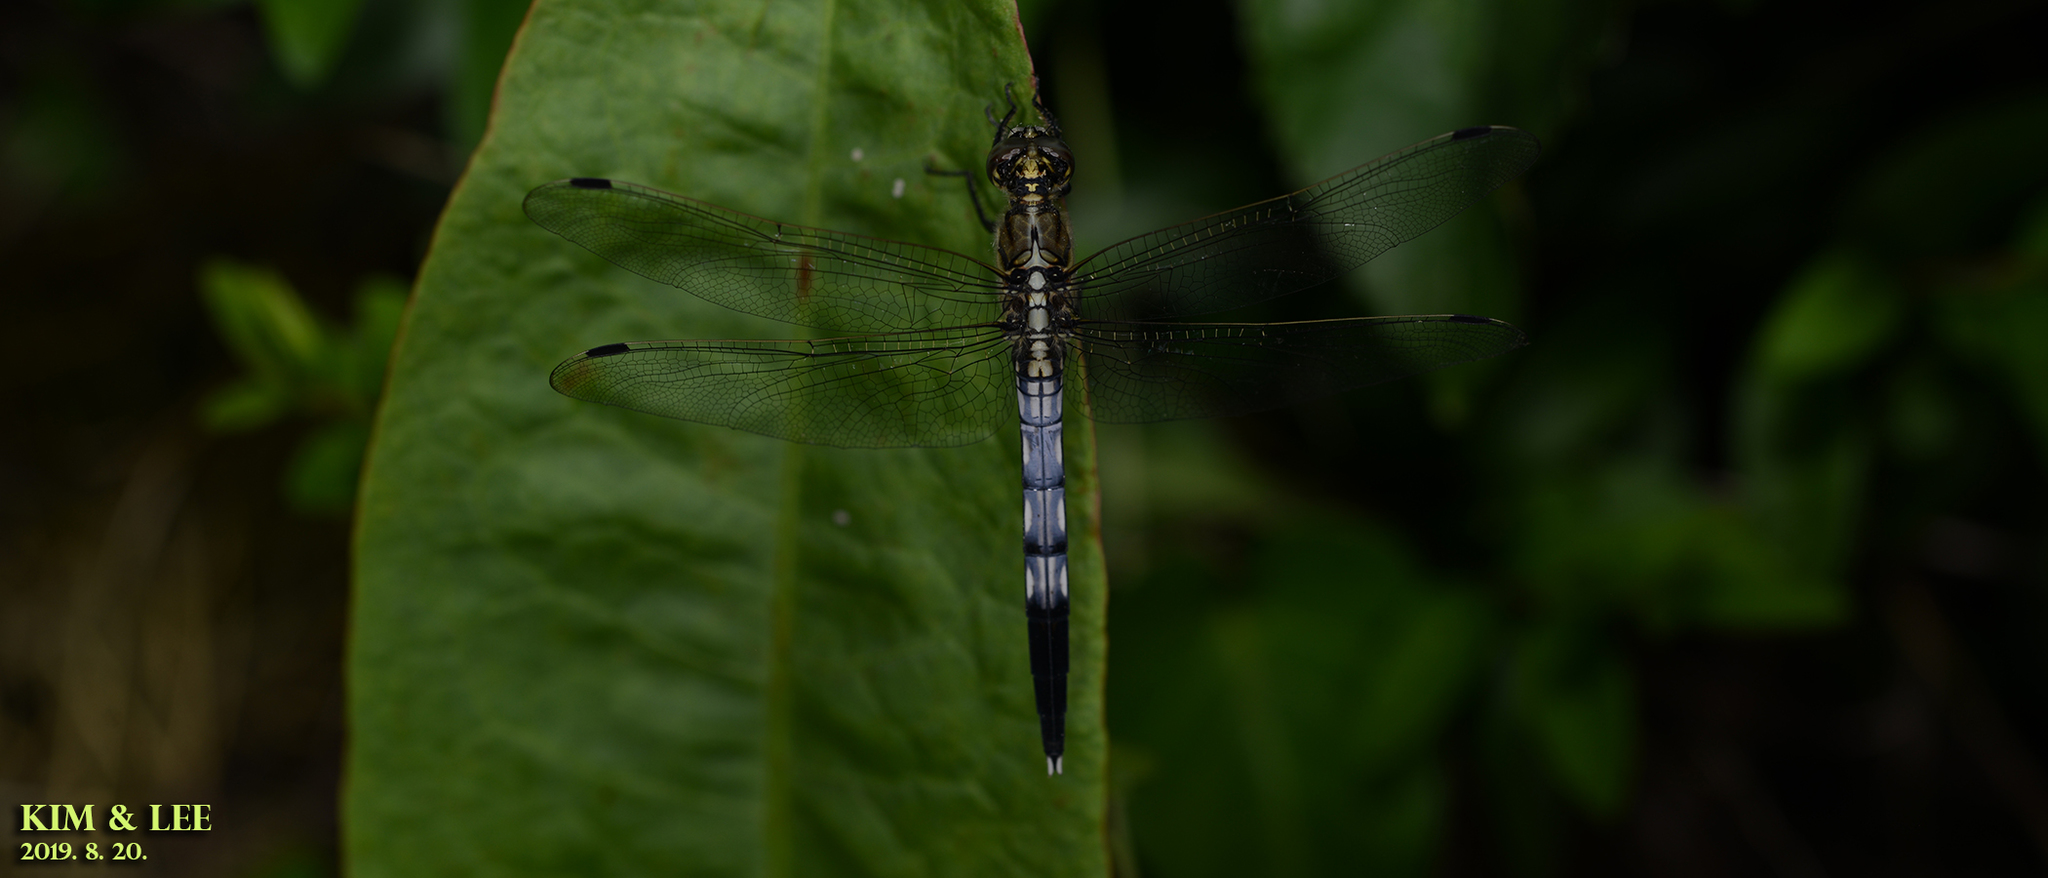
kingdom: Animalia
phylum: Arthropoda
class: Insecta
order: Odonata
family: Libellulidae
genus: Orthetrum
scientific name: Orthetrum albistylum
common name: White-tailed skimmer
